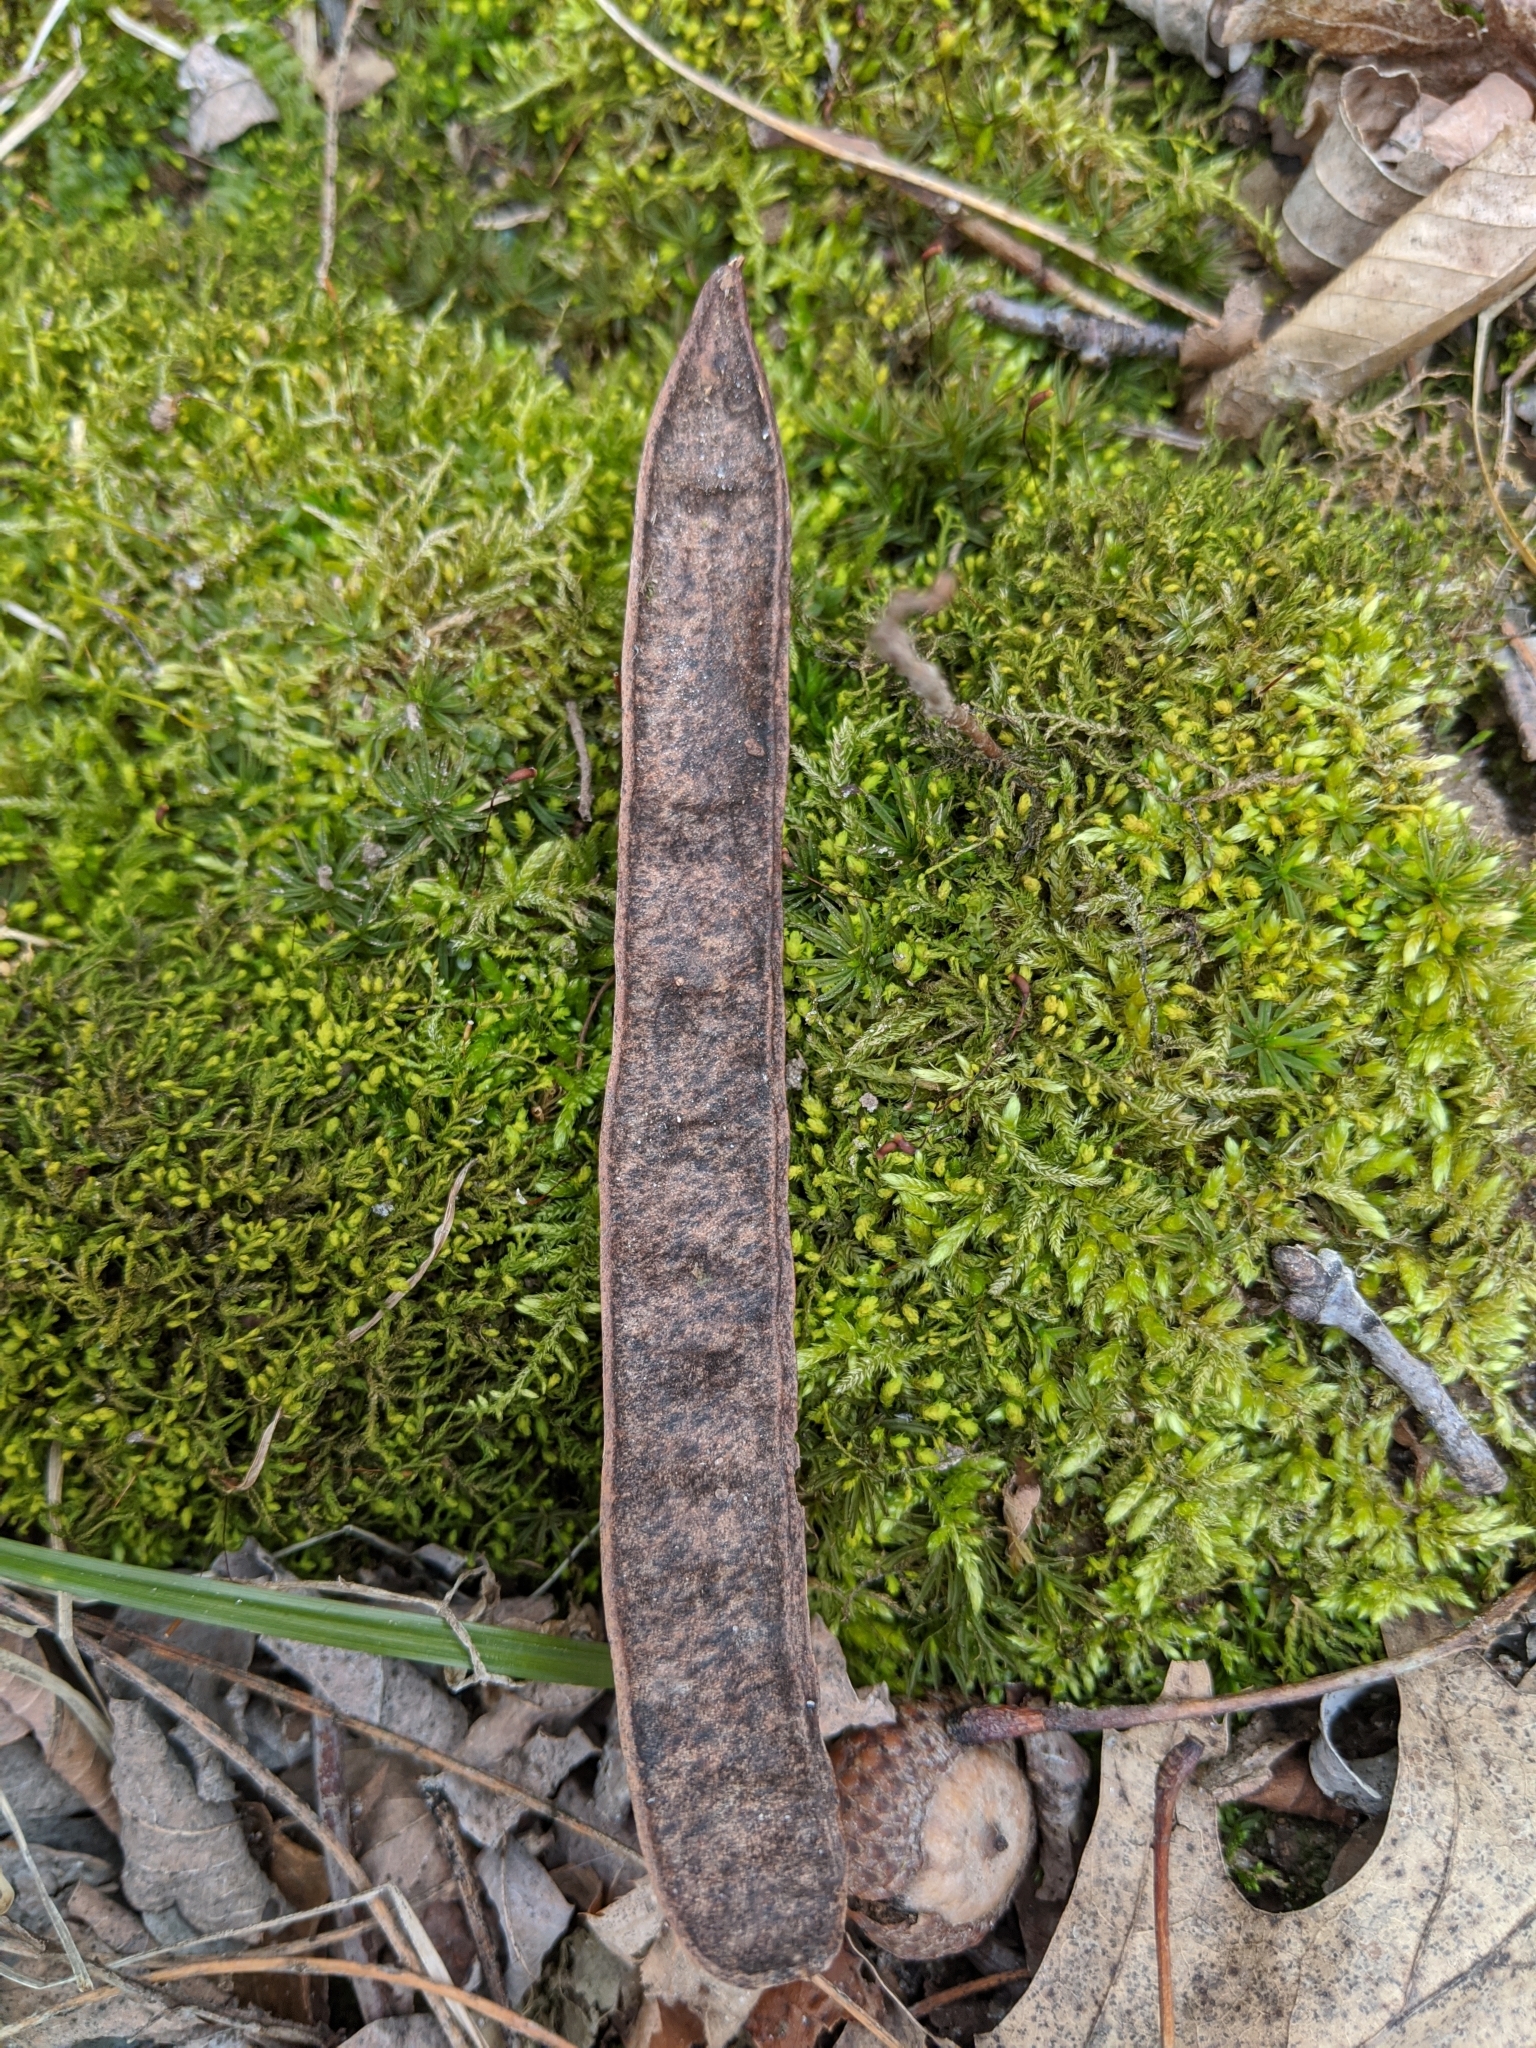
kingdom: Plantae
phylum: Tracheophyta
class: Magnoliopsida
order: Fabales
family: Fabaceae
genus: Robinia
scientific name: Robinia pseudoacacia
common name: Black locust
